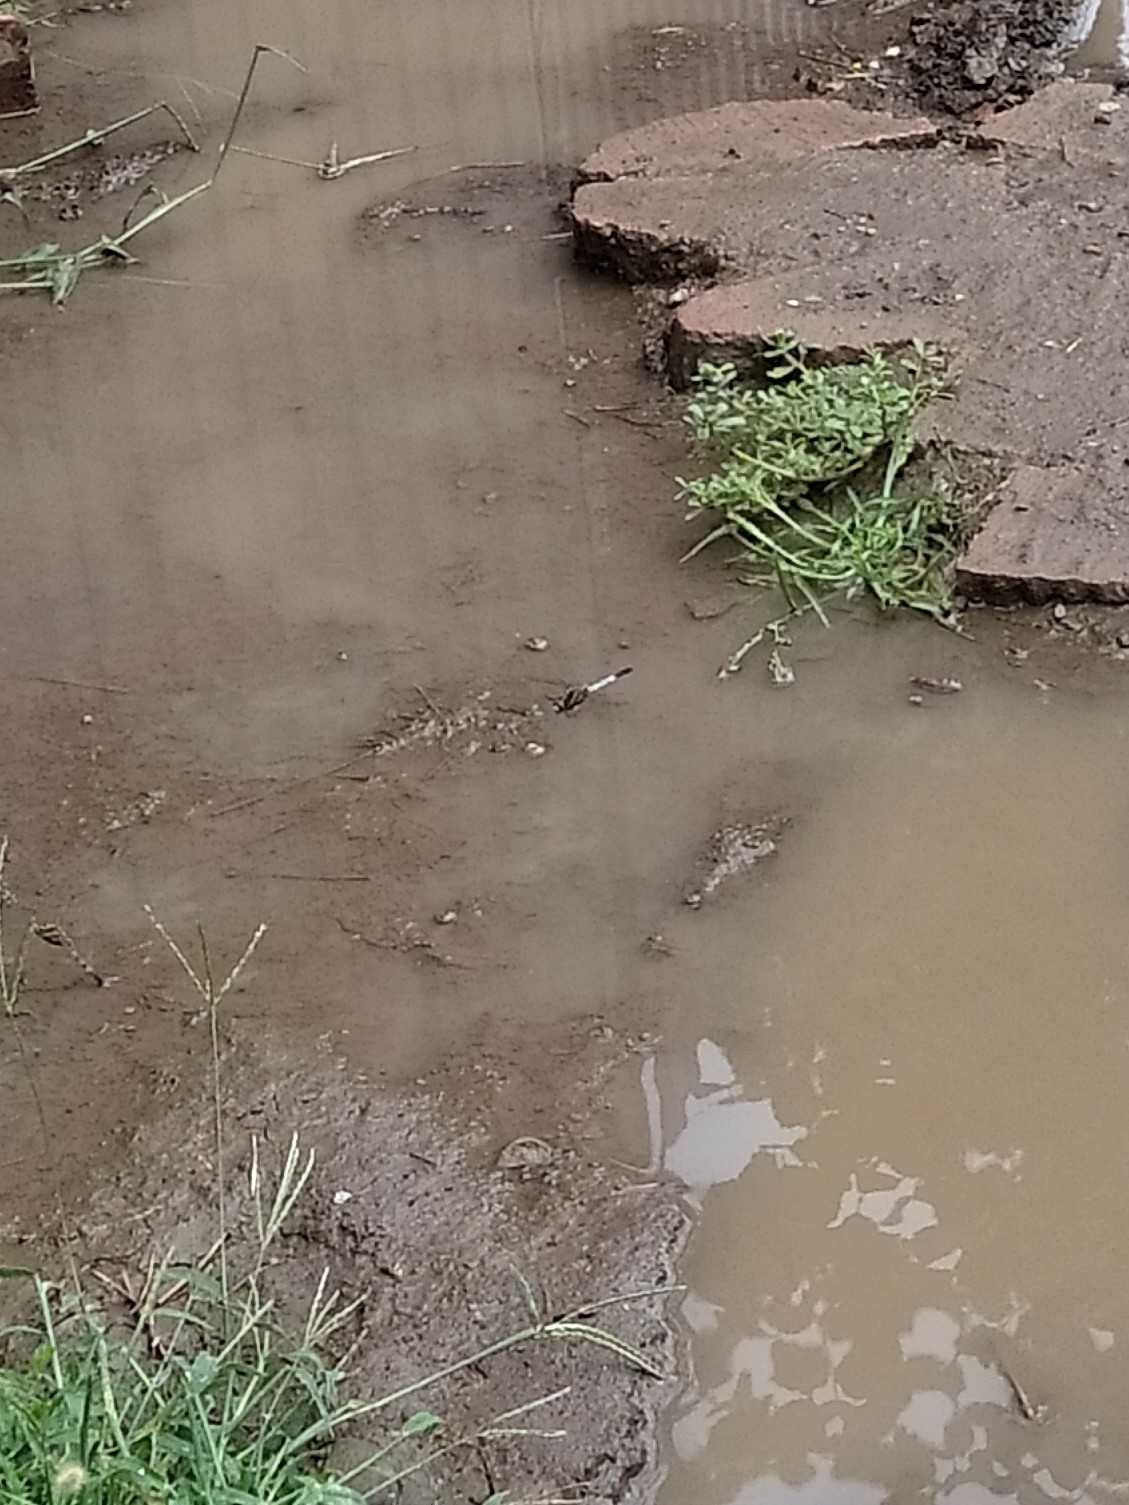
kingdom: Animalia
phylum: Arthropoda
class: Insecta
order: Odonata
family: Libellulidae
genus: Orthetrum
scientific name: Orthetrum albistylum
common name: White-tailed skimmer
